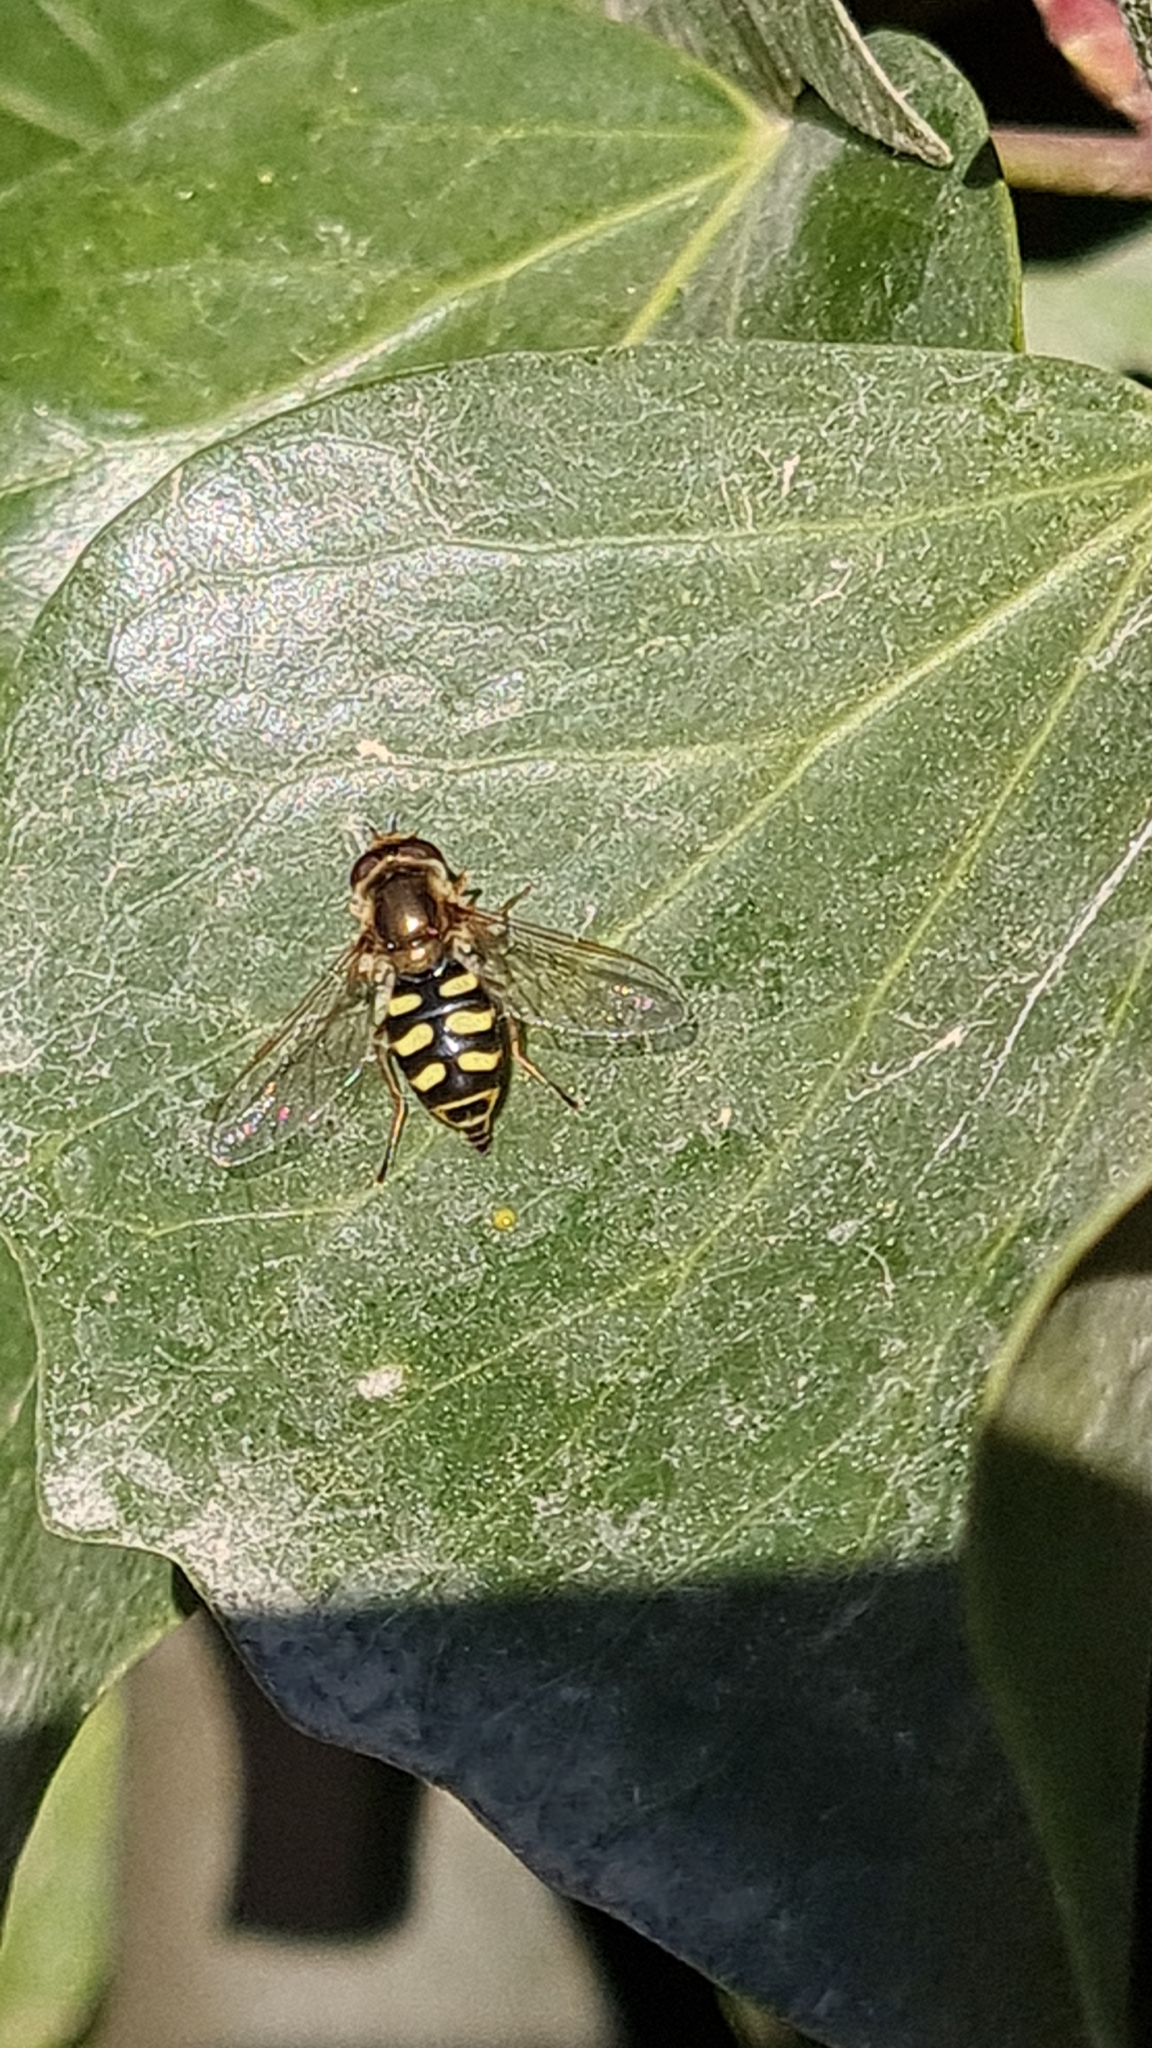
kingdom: Animalia
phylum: Arthropoda
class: Insecta
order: Diptera
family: Syrphidae
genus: Eupeodes
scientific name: Eupeodes corollae
